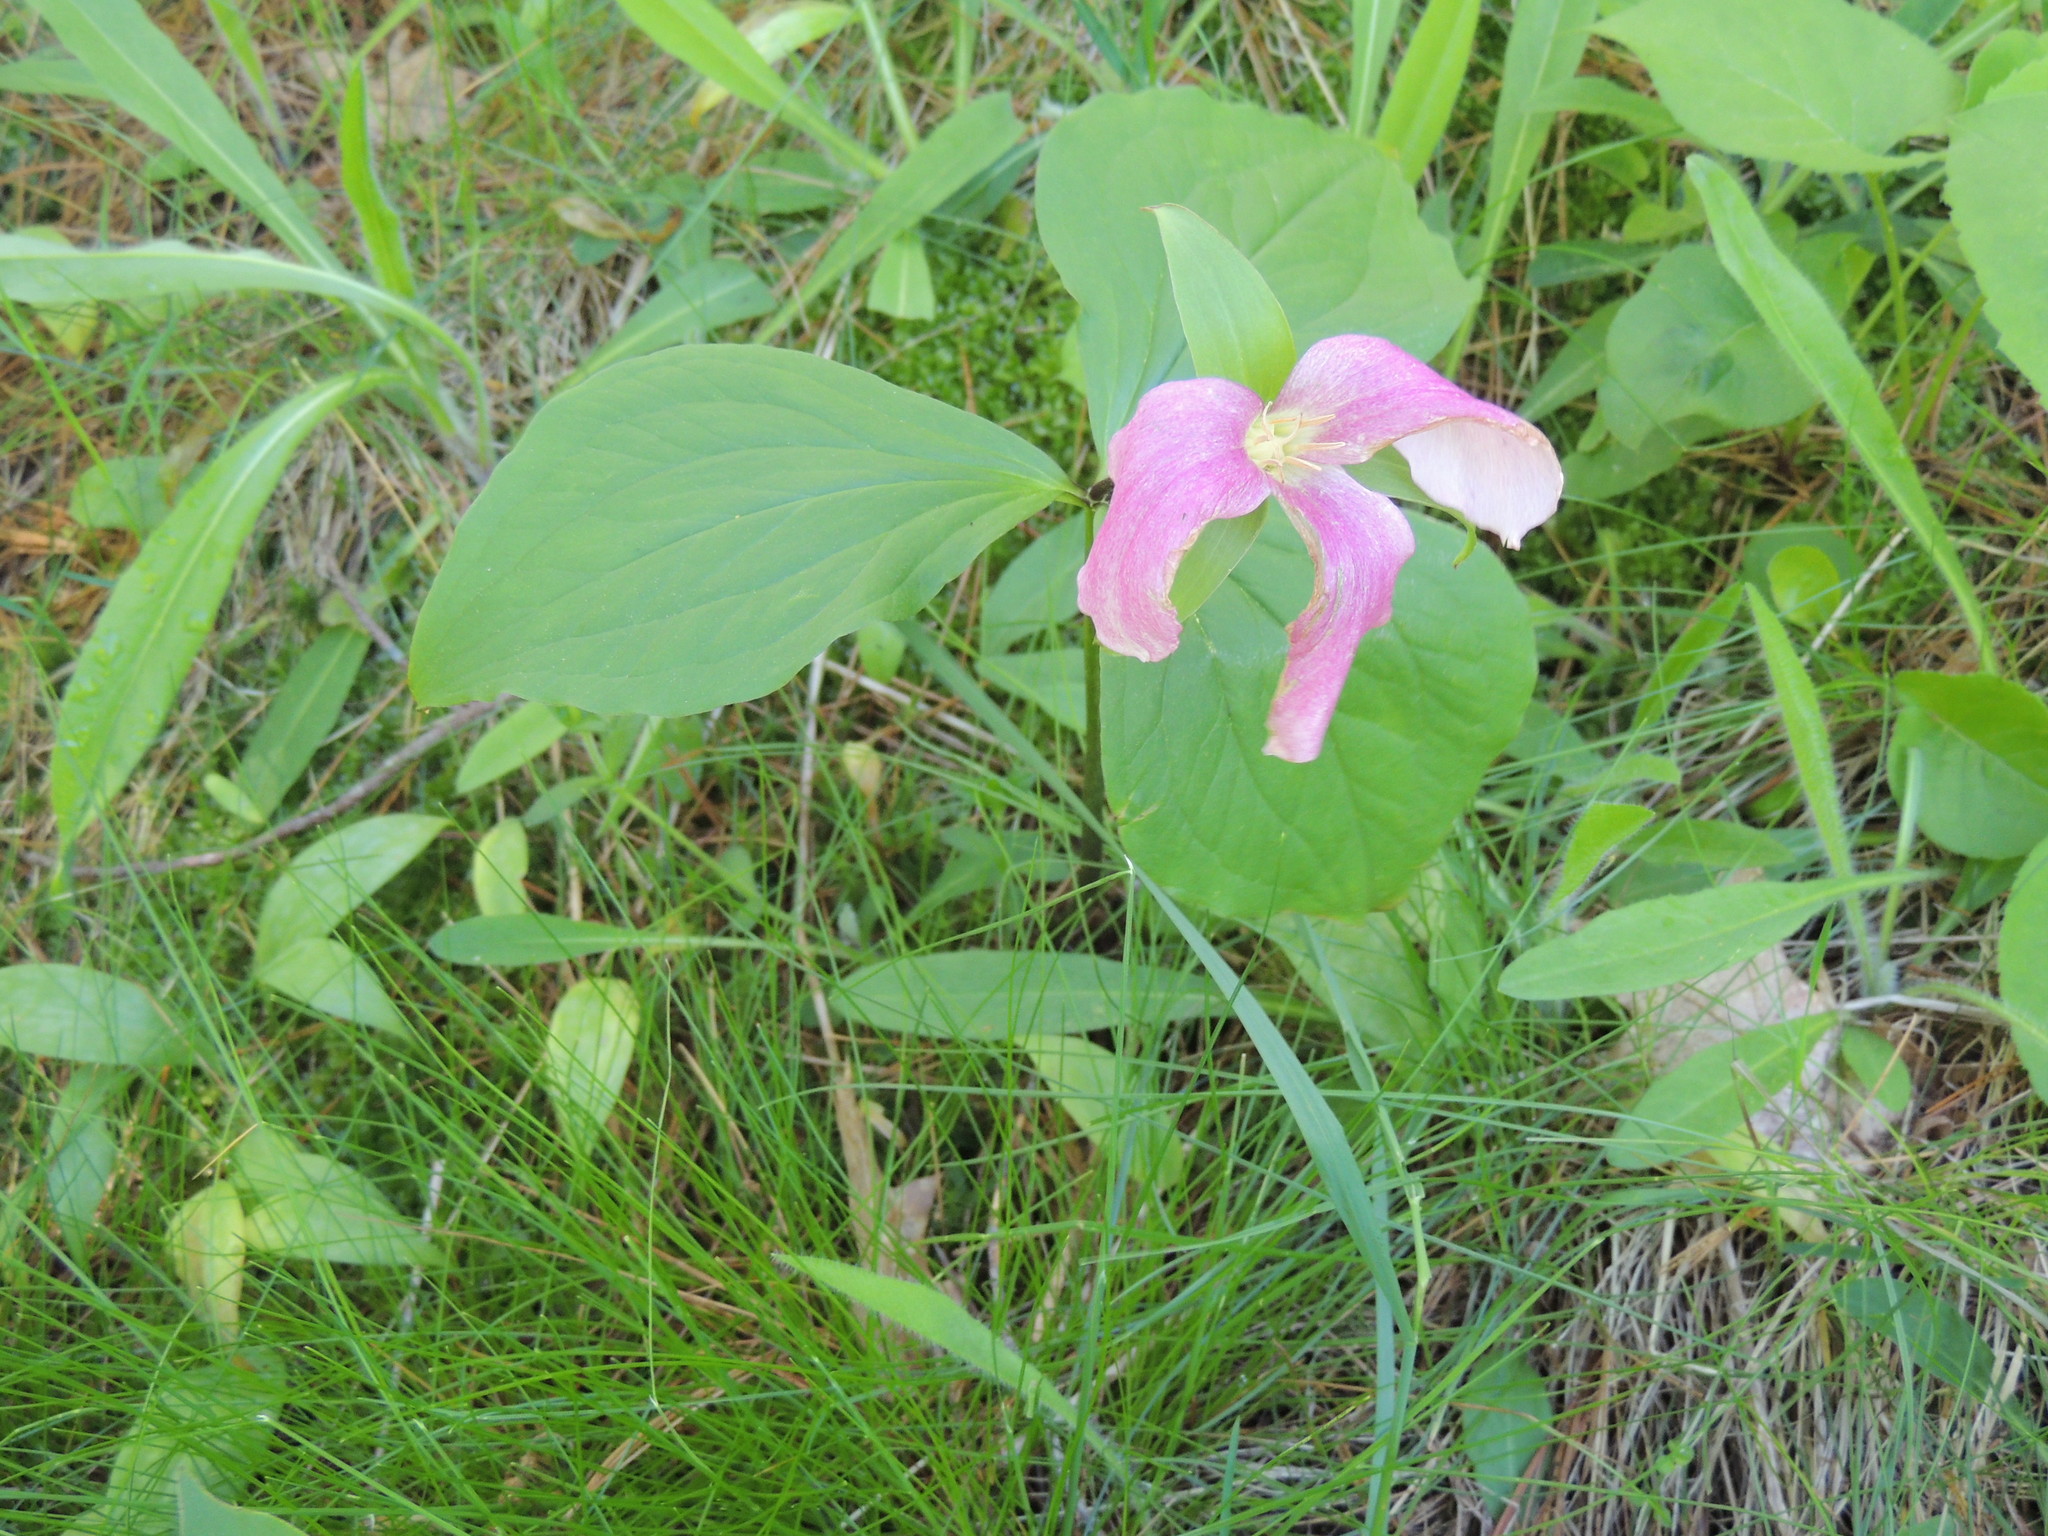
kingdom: Plantae
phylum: Tracheophyta
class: Liliopsida
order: Liliales
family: Melanthiaceae
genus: Trillium
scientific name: Trillium grandiflorum
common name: Great white trillium
